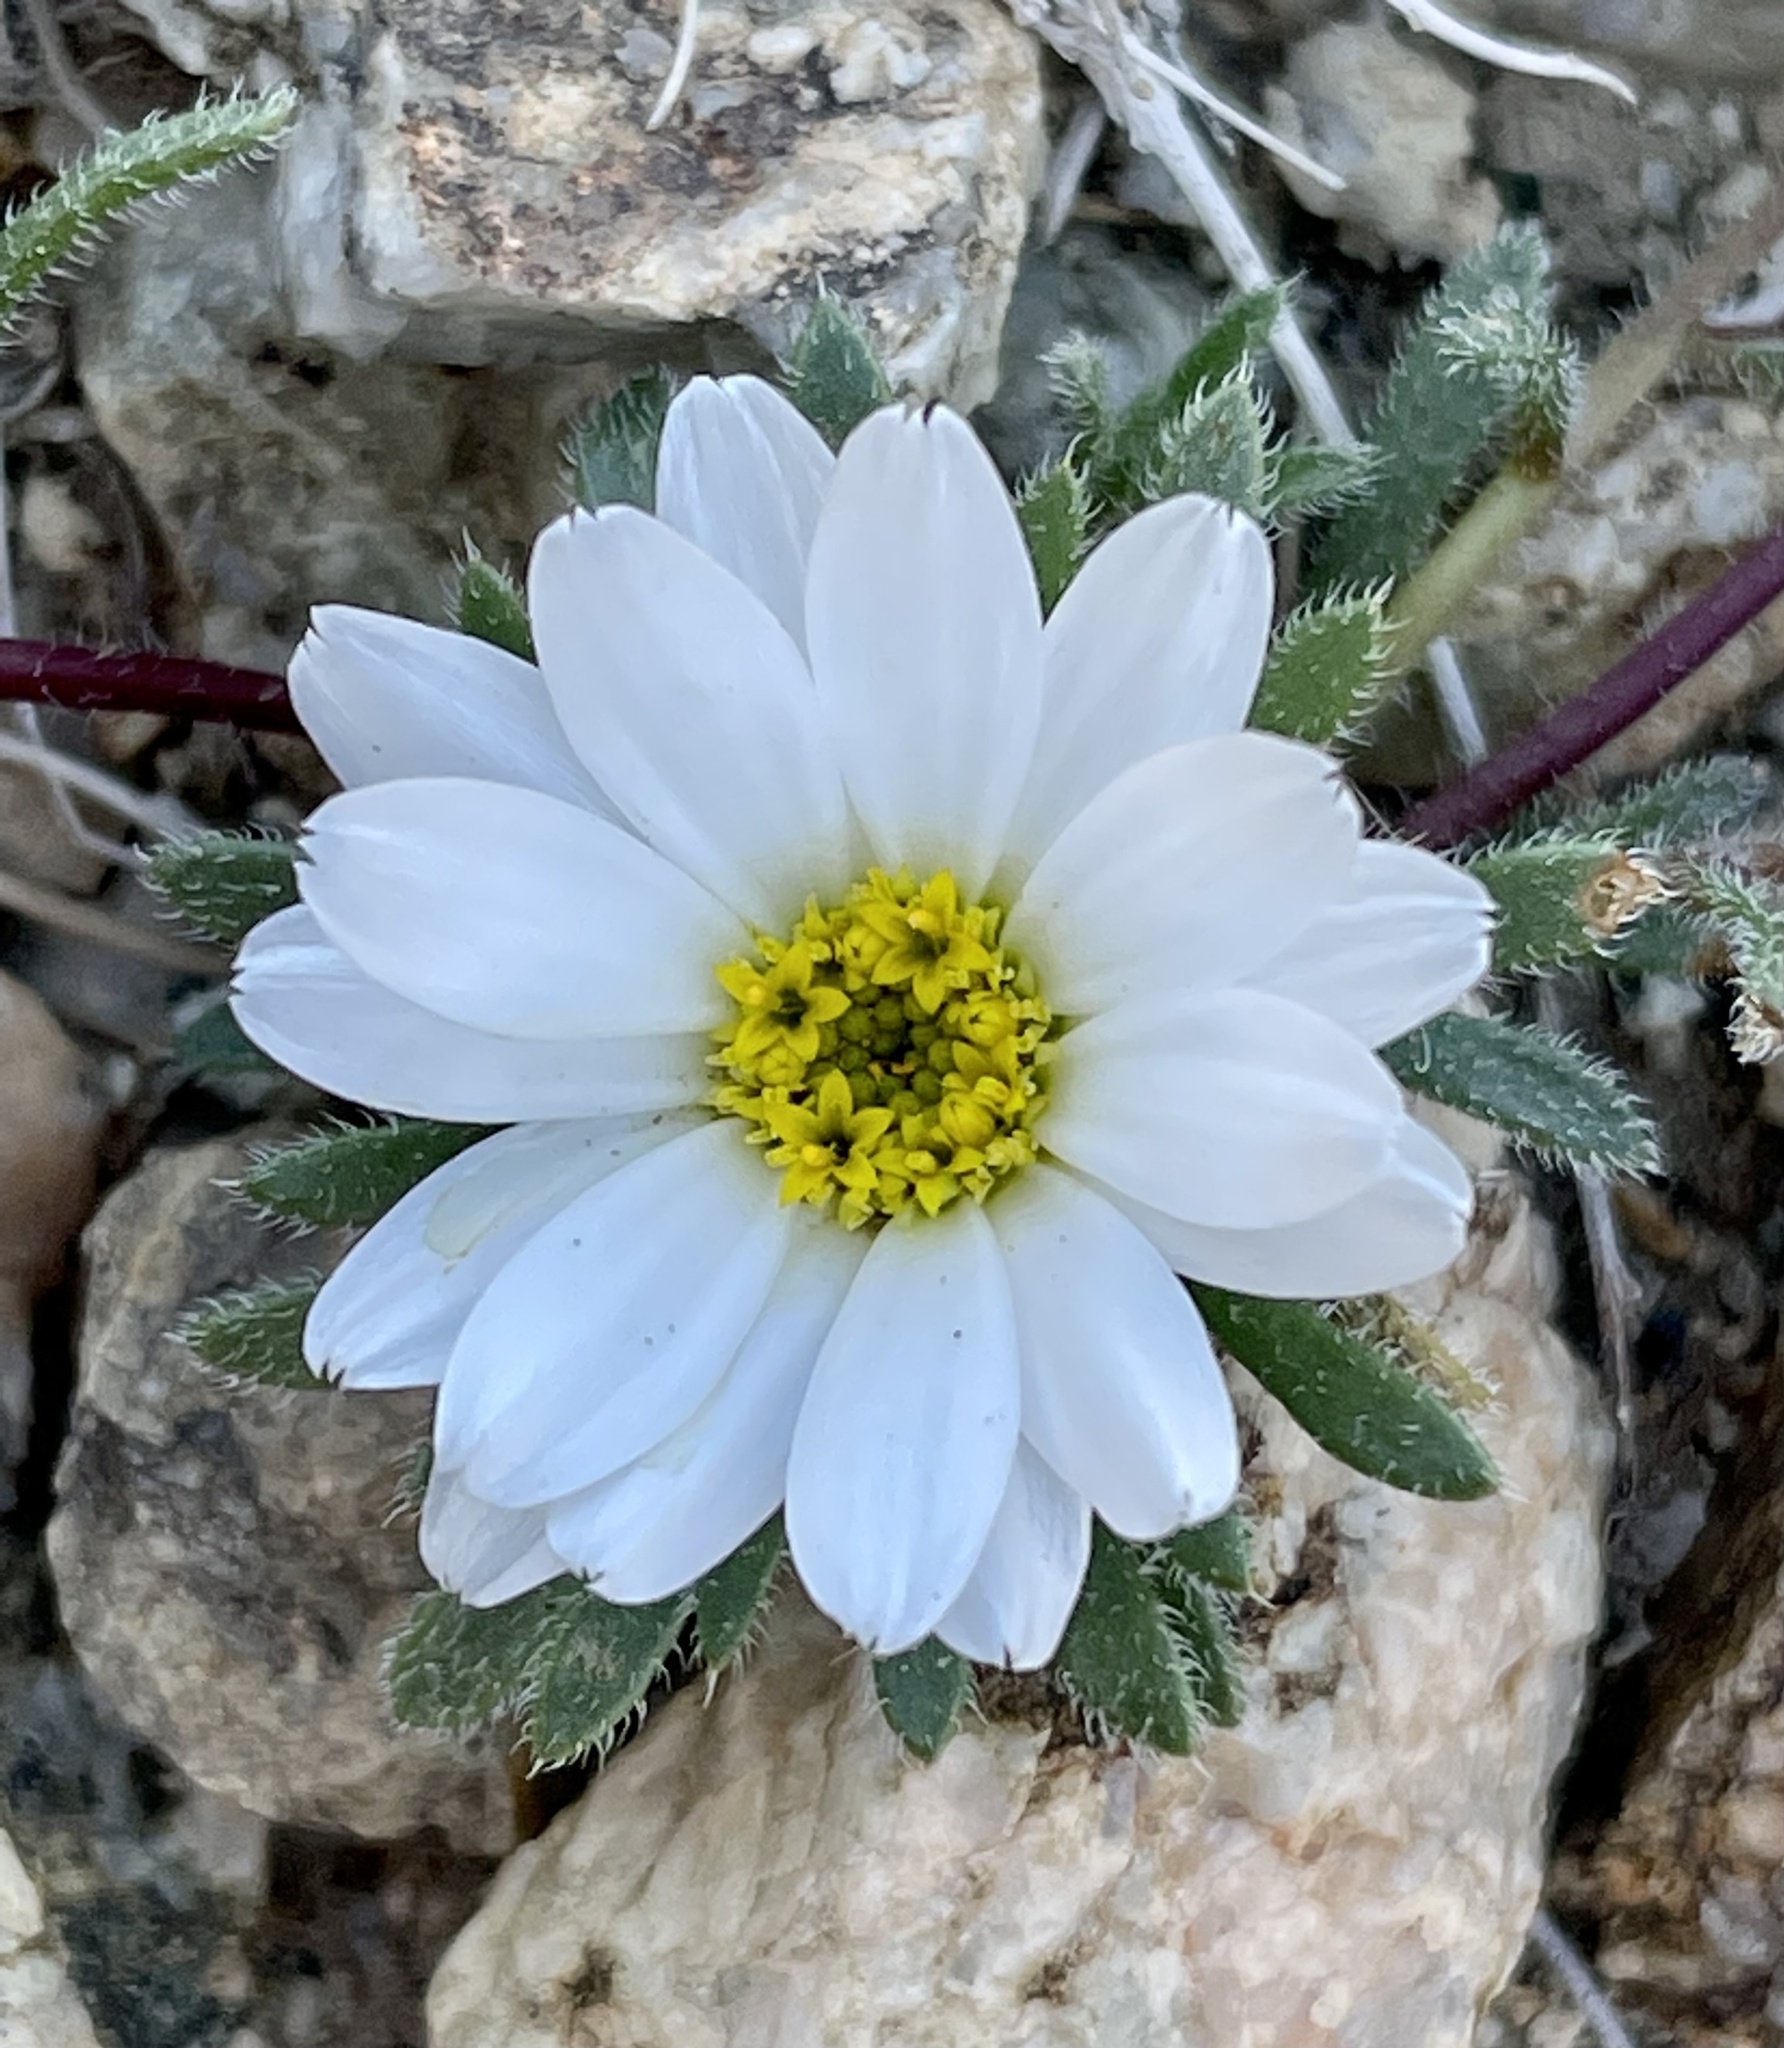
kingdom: Plantae
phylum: Tracheophyta
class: Magnoliopsida
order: Asterales
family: Asteraceae
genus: Monoptilon
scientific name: Monoptilon bellioides
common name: Bristly desertstar
